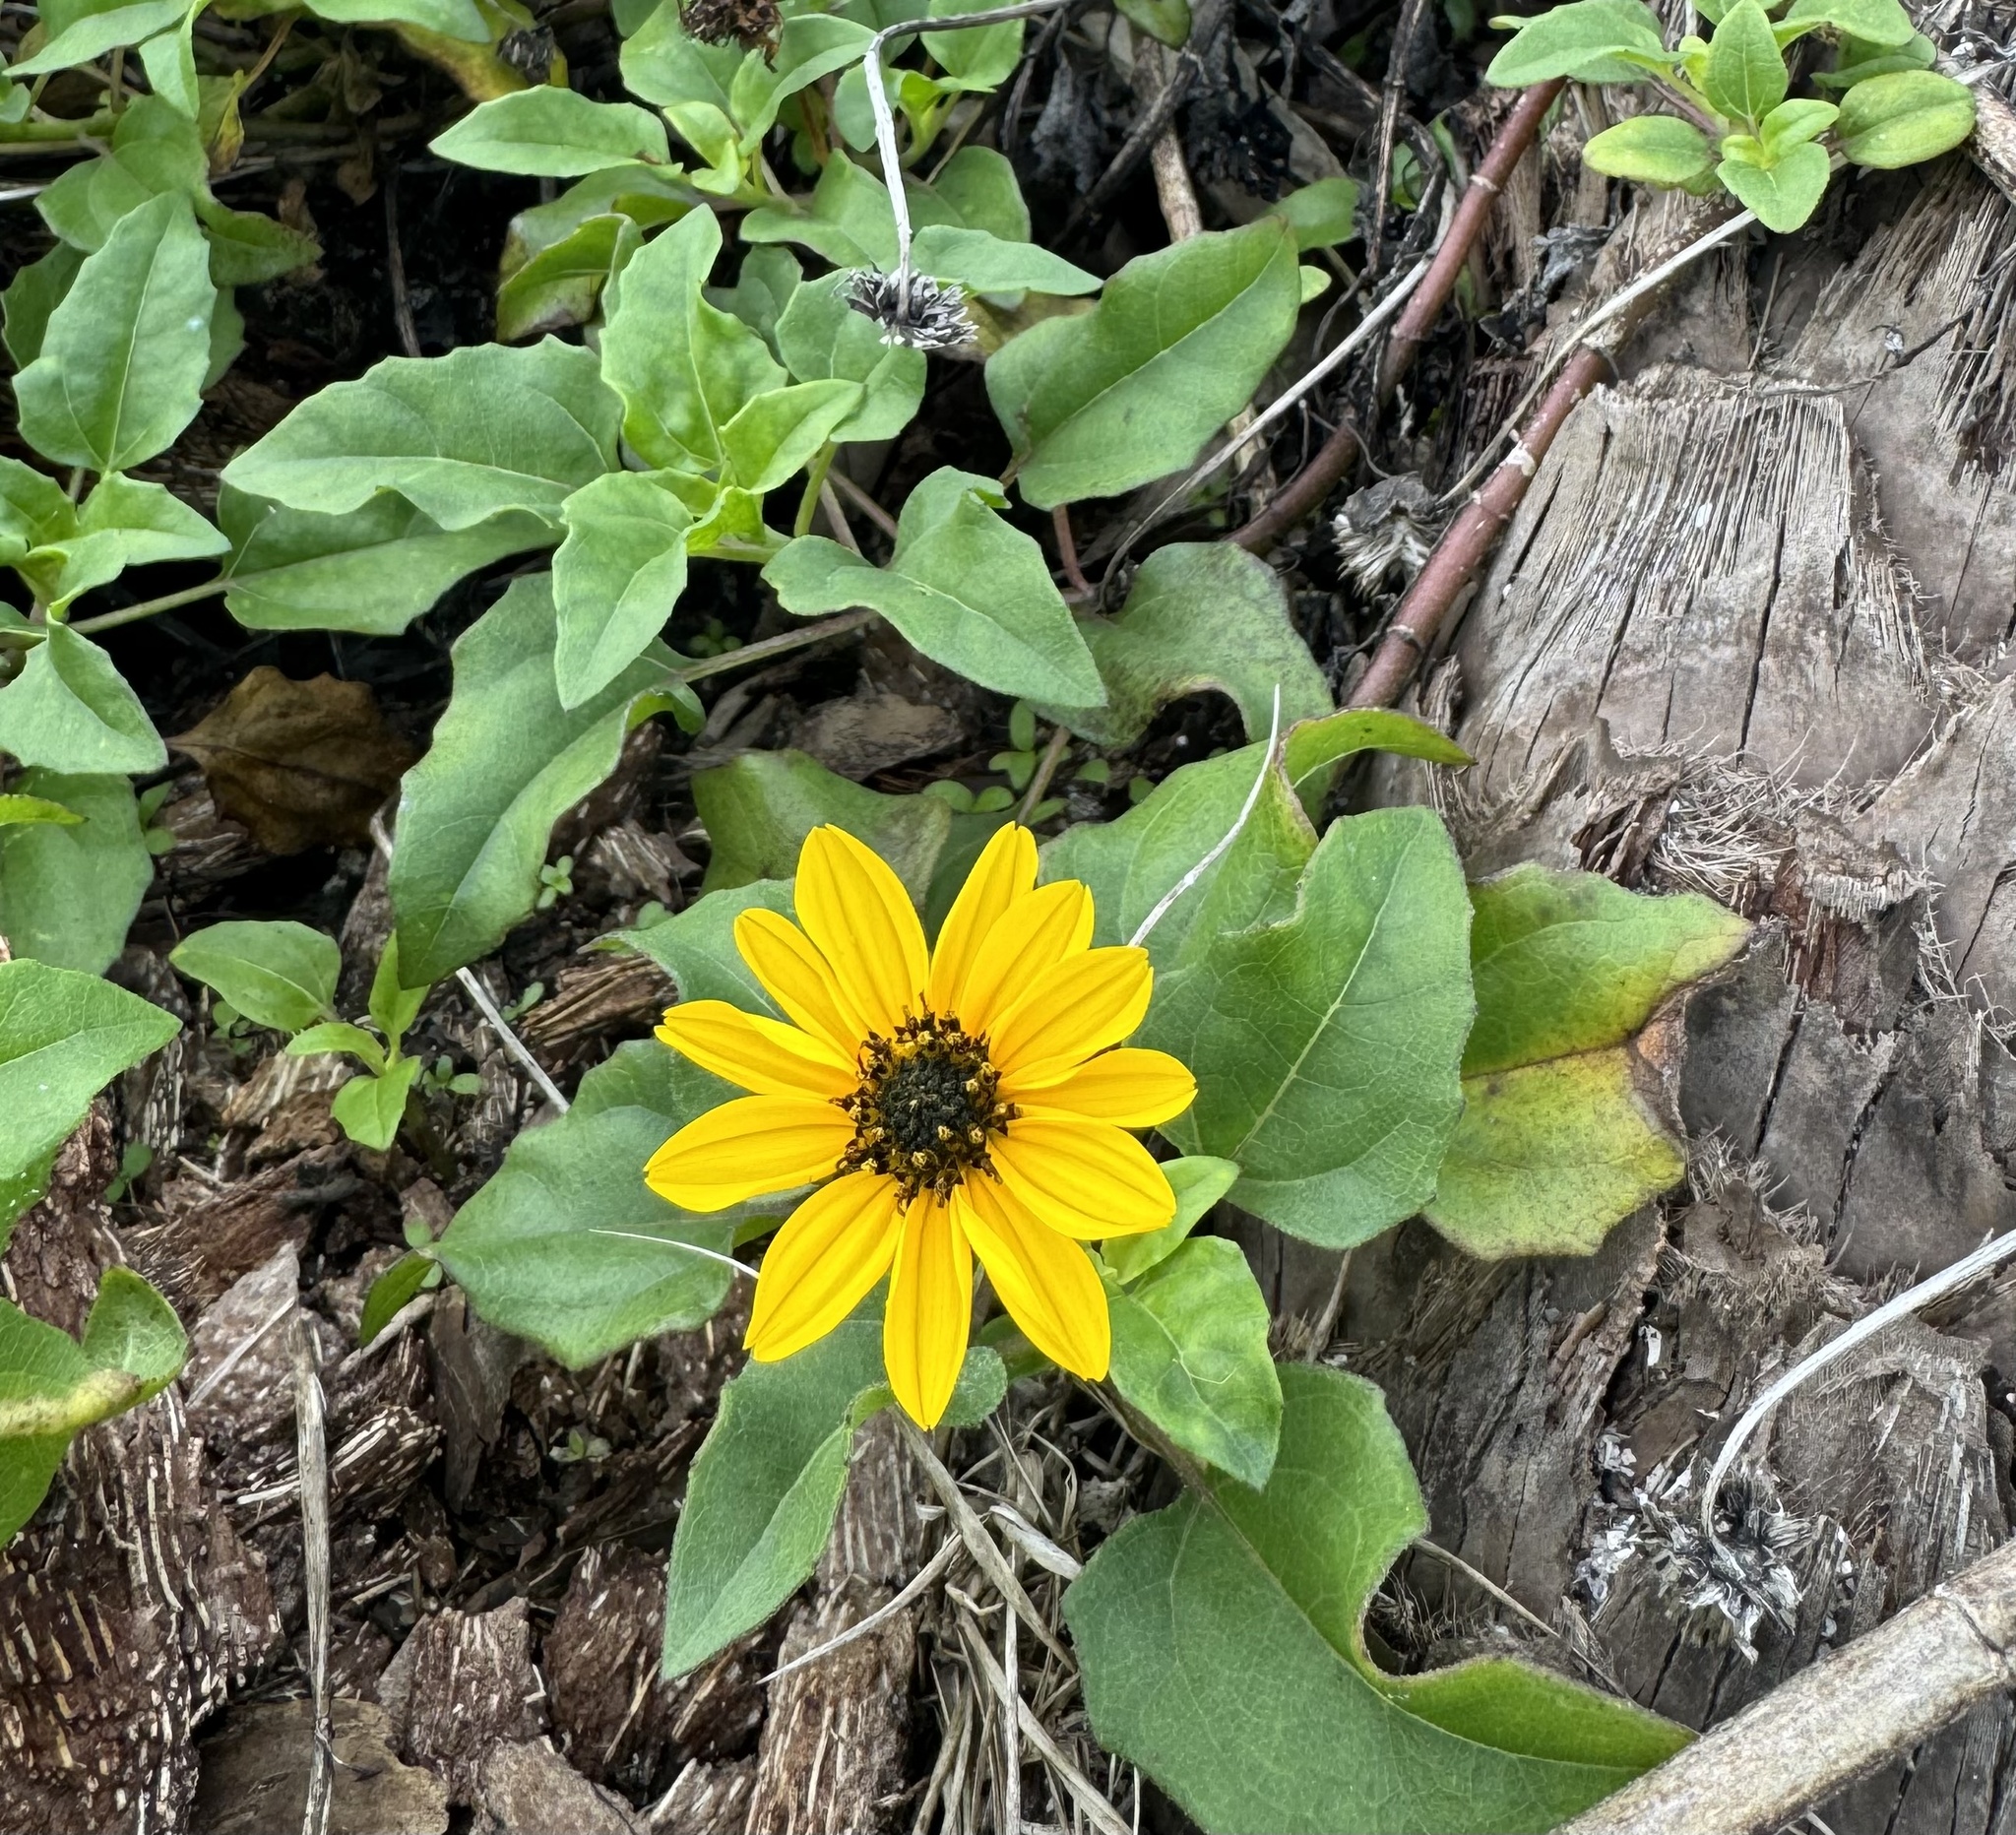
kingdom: Plantae
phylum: Tracheophyta
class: Magnoliopsida
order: Asterales
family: Asteraceae
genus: Helianthus
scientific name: Helianthus debilis
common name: Weak sunflower
